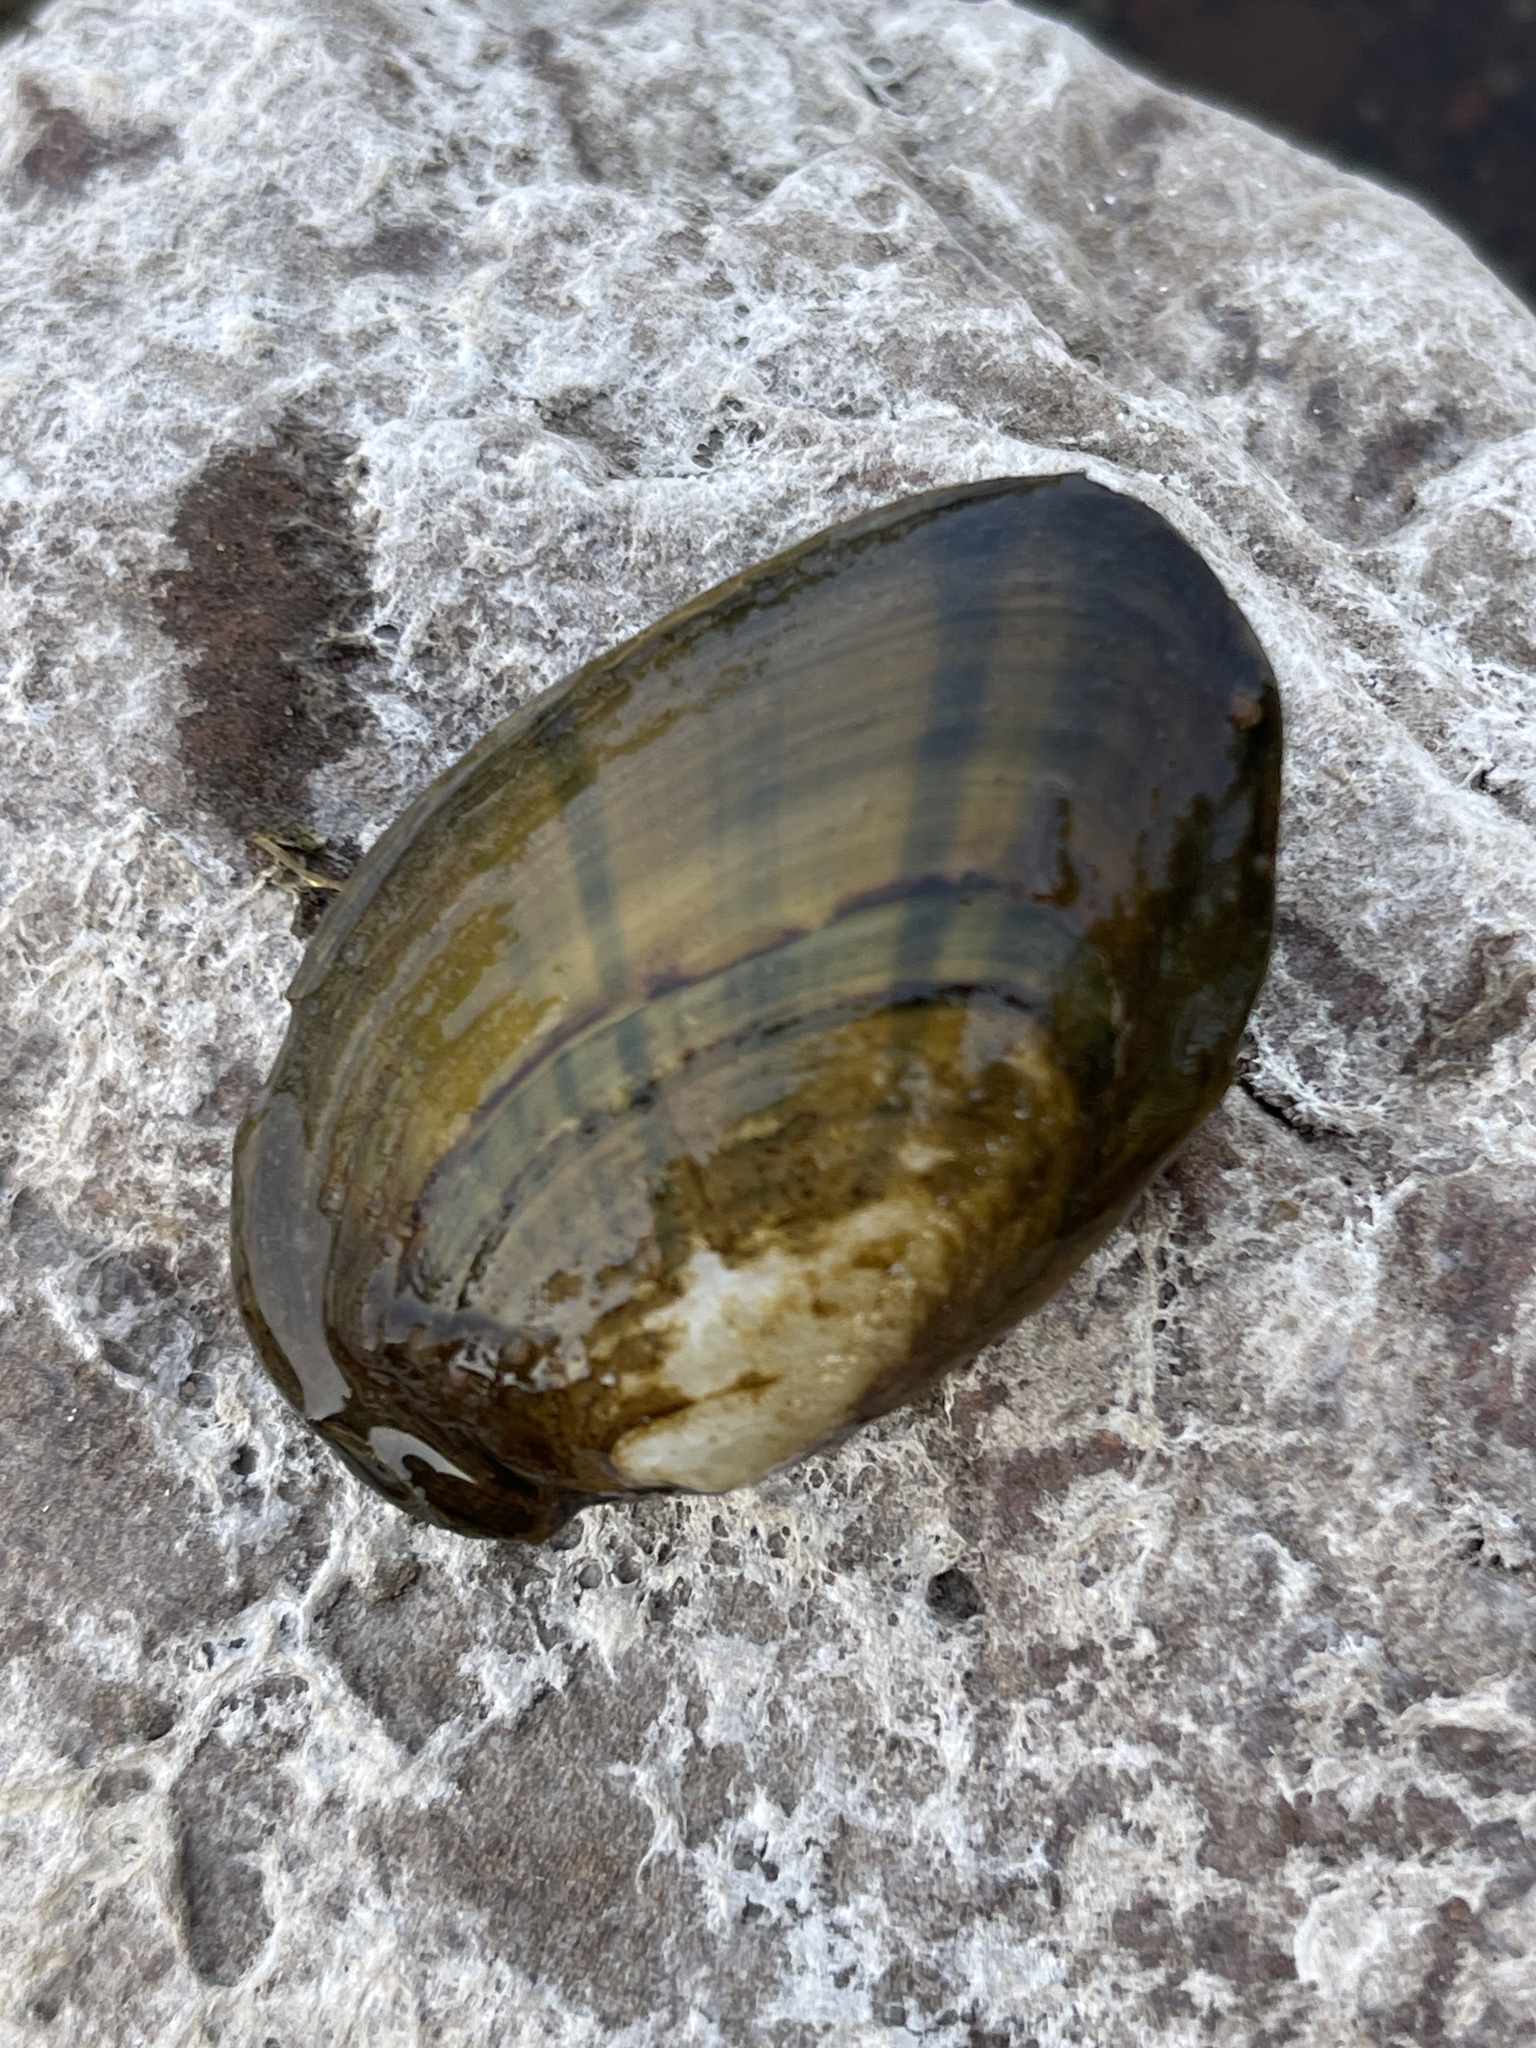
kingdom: Animalia
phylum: Mollusca
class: Bivalvia
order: Unionida
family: Unionidae
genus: Ortmanniana
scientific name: Ortmanniana ligamentina
